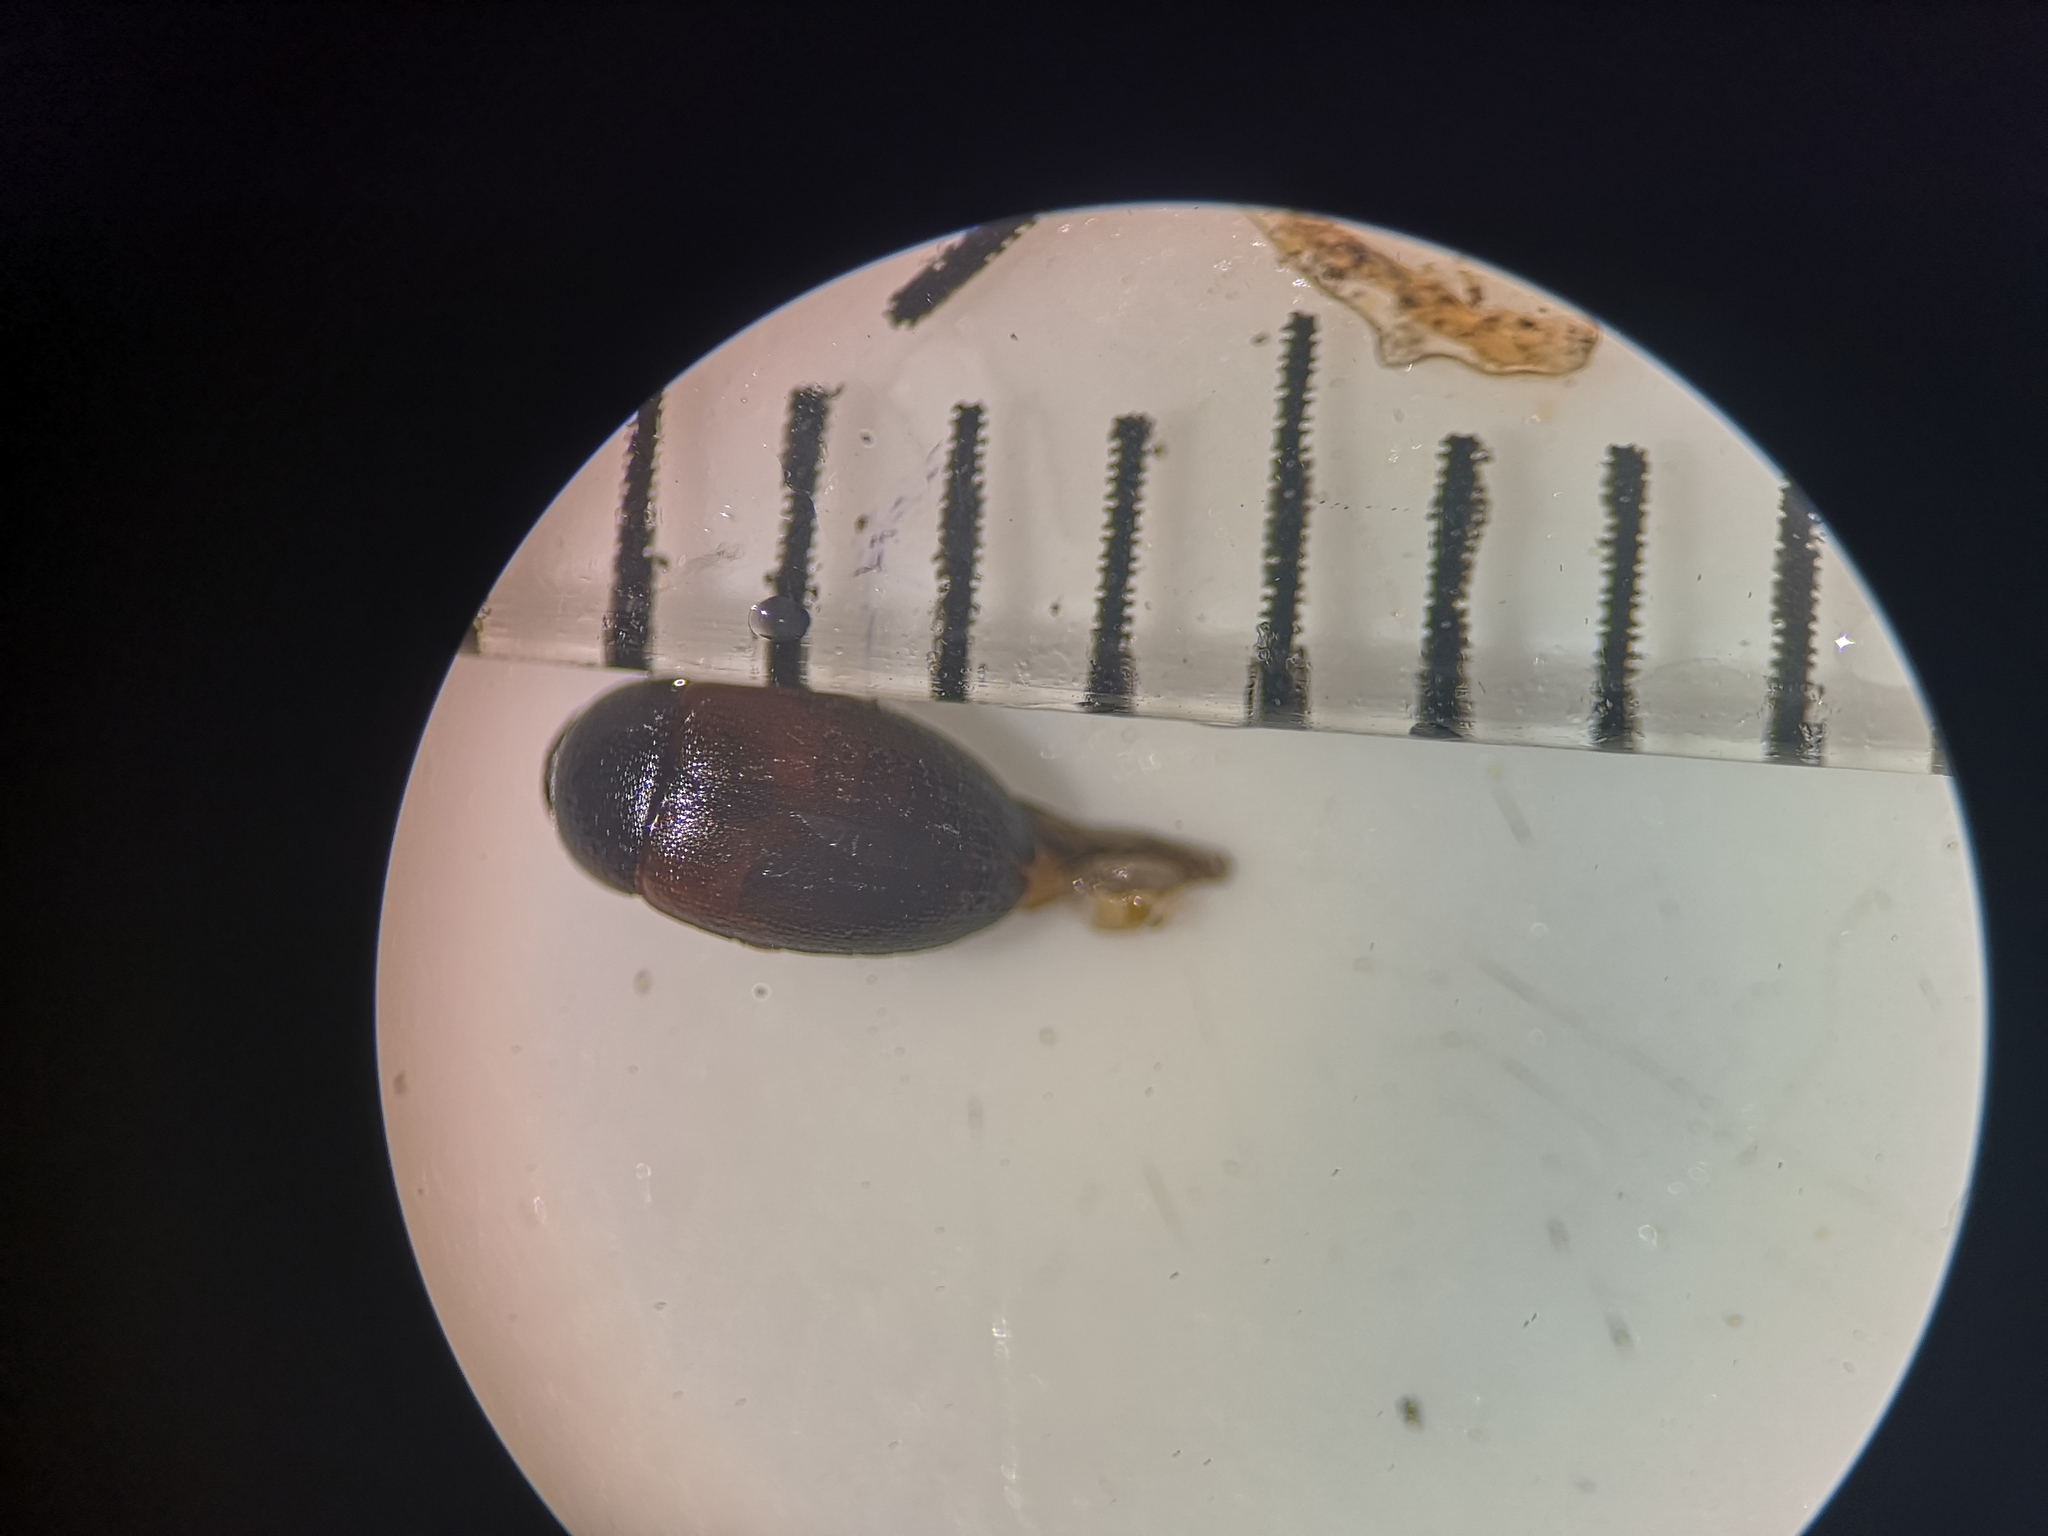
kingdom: Animalia
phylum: Arthropoda
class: Insecta
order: Coleoptera
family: Leiodidae
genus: Sciodrepoides
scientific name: Sciodrepoides watsoni
